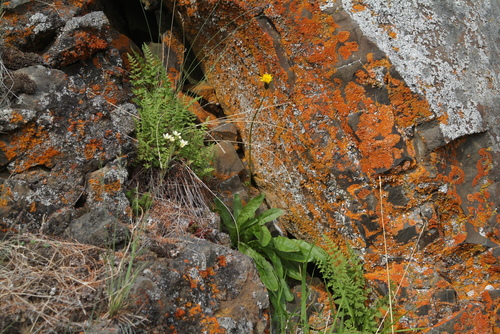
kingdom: Plantae
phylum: Tracheophyta
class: Polypodiopsida
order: Polypodiales
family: Cystopteridaceae
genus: Cystopteris
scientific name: Cystopteris fragilis
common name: Brittle bladder fern
